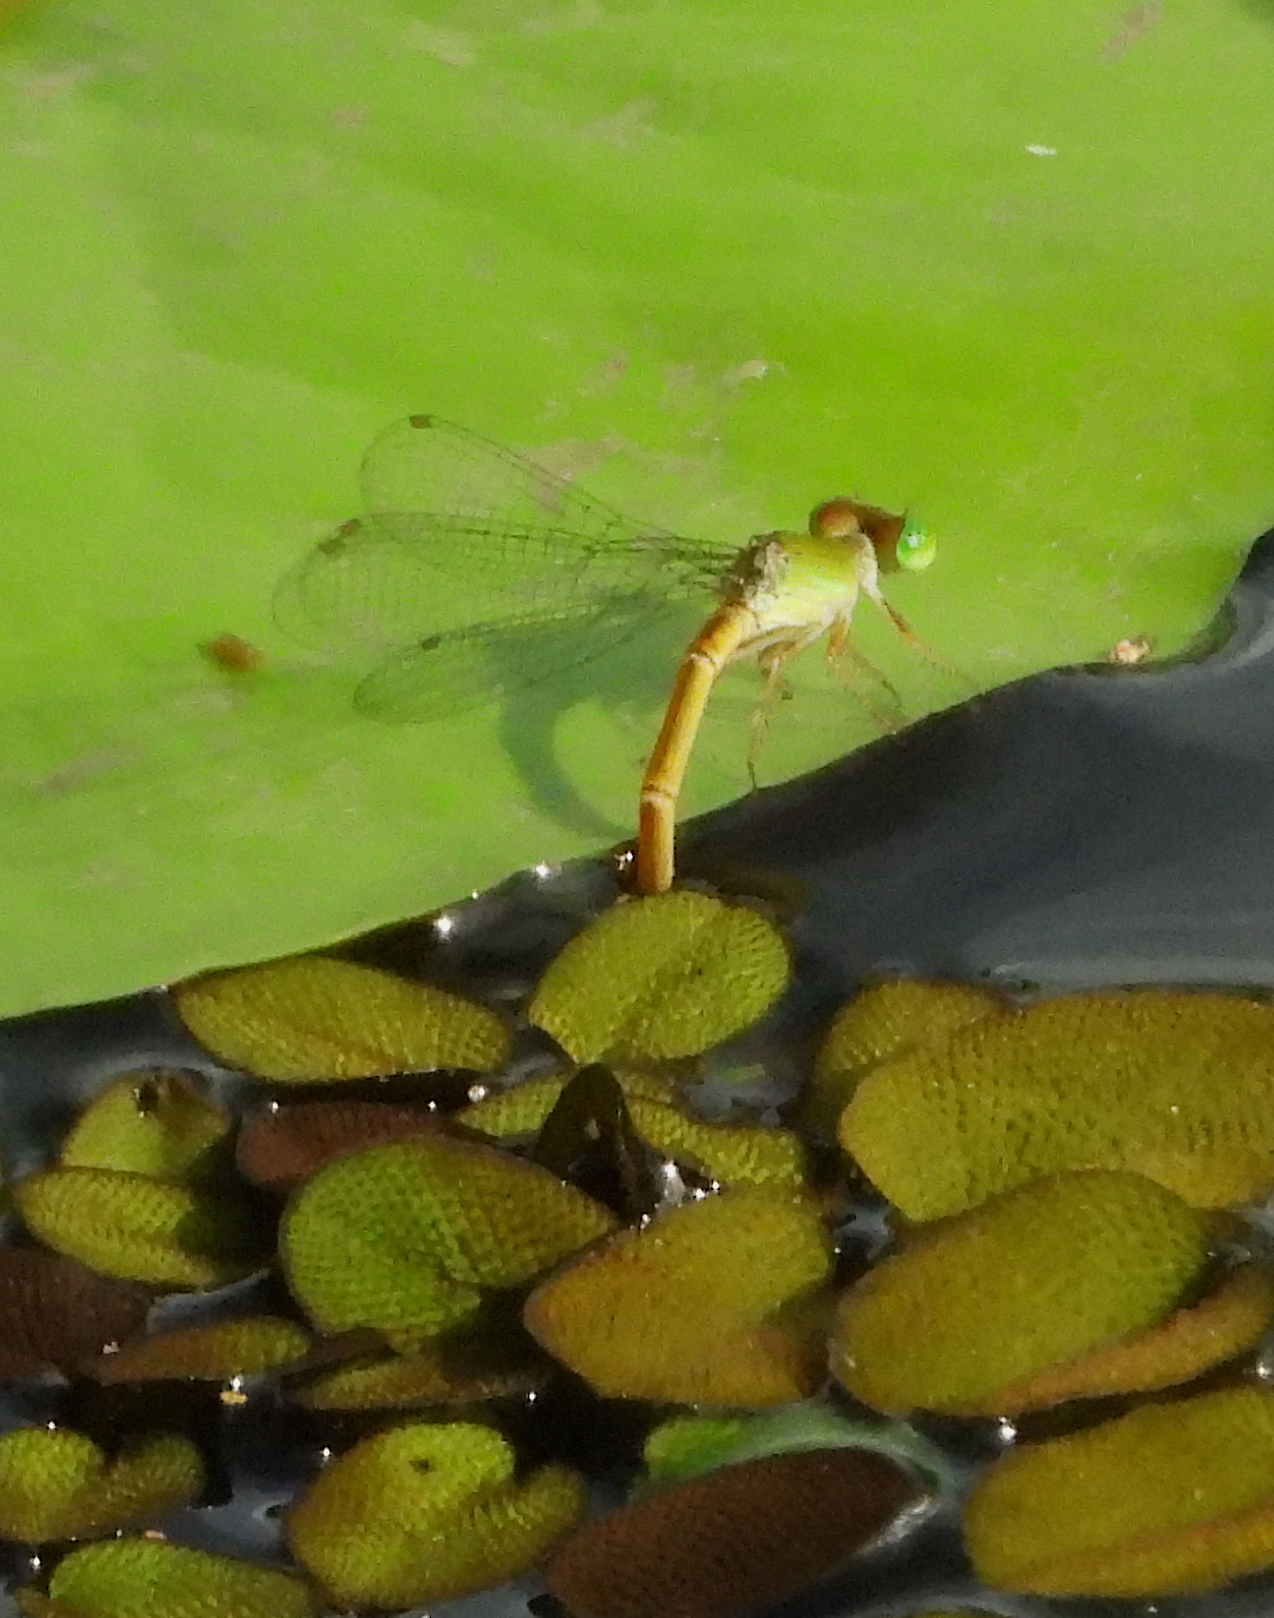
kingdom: Animalia
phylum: Arthropoda
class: Insecta
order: Odonata
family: Coenagrionidae
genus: Ceriagrion
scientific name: Ceriagrion coromandelianum
